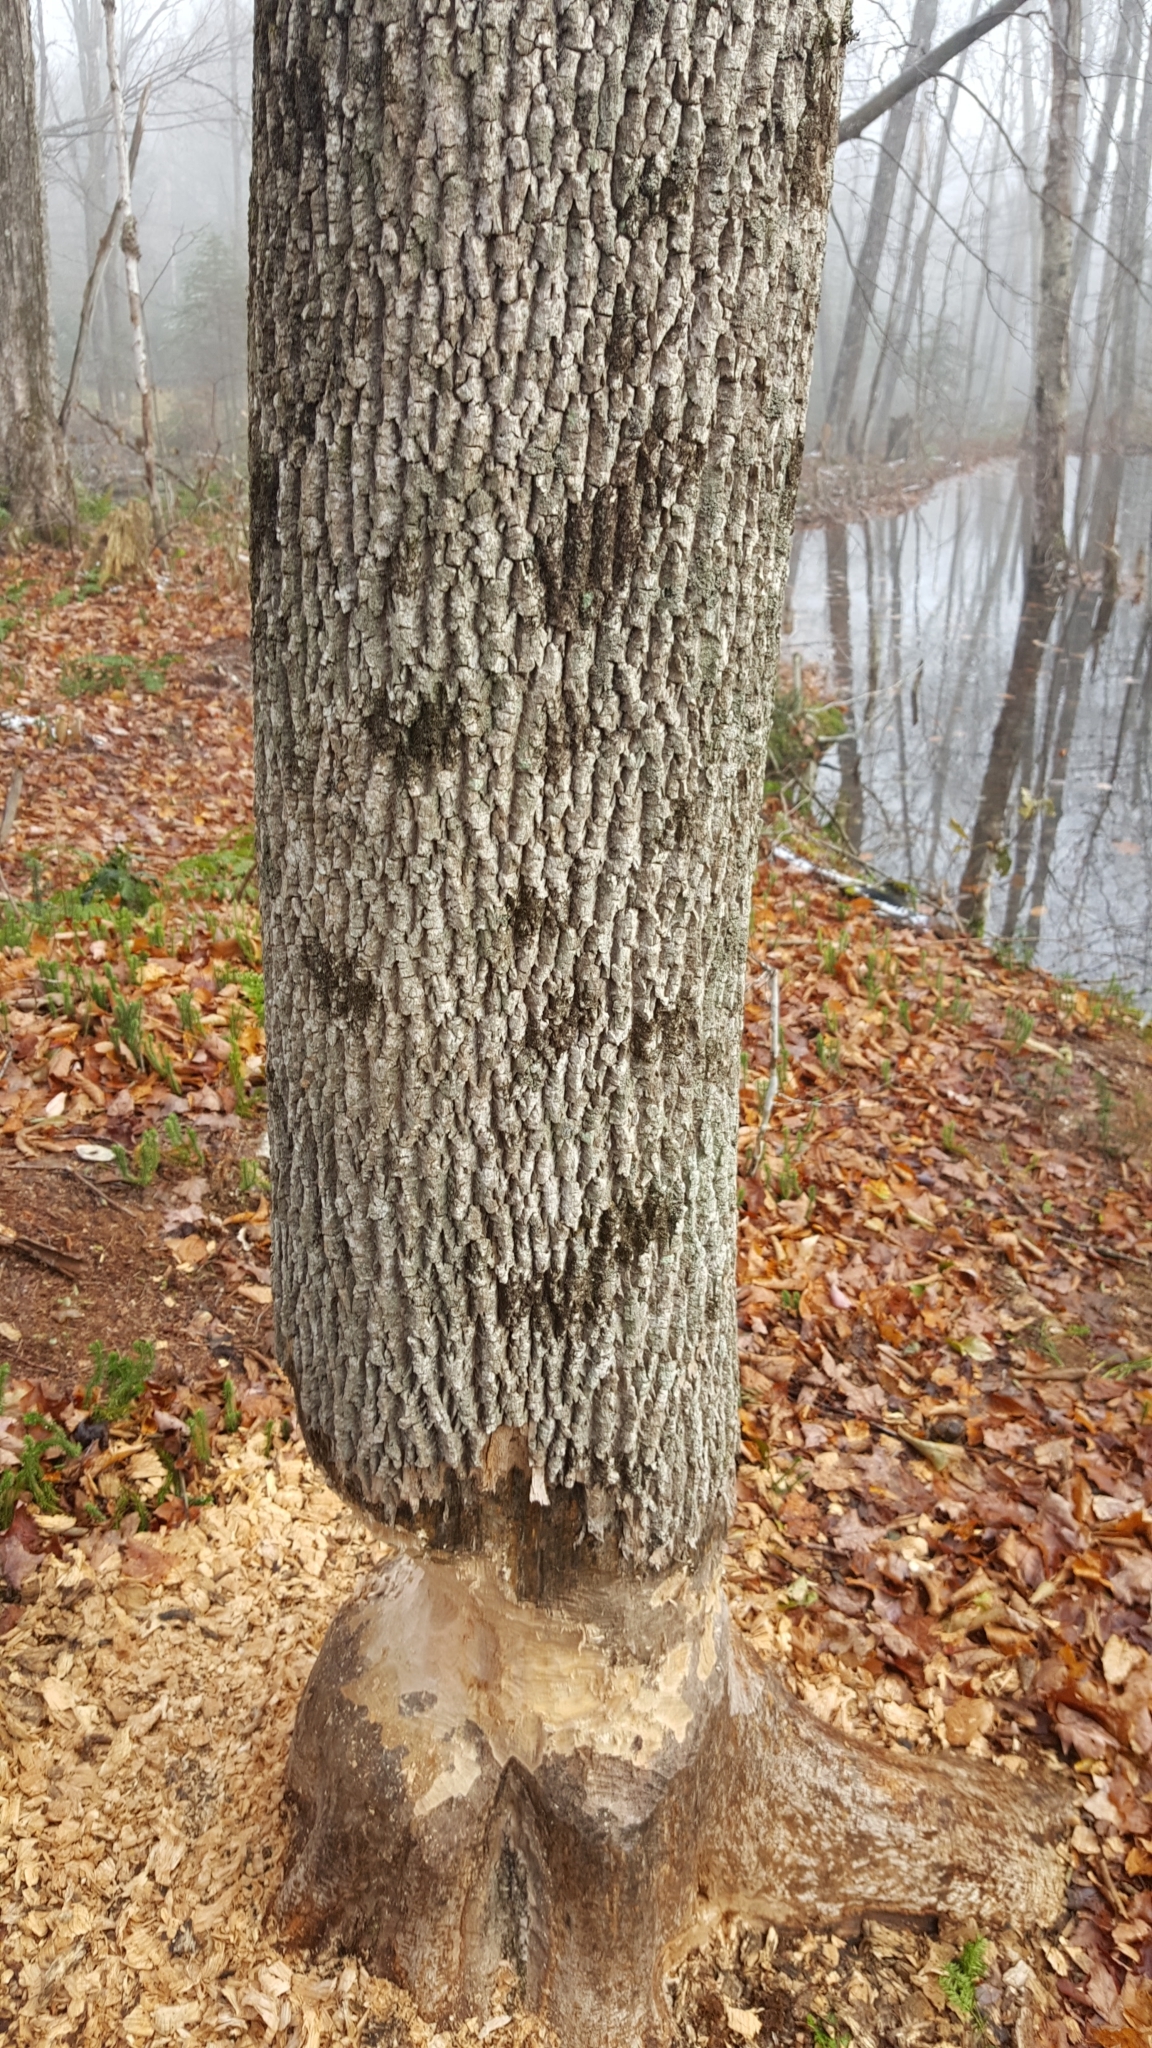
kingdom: Plantae
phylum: Tracheophyta
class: Magnoliopsida
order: Lamiales
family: Oleaceae
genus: Fraxinus
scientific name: Fraxinus americana
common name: White ash
